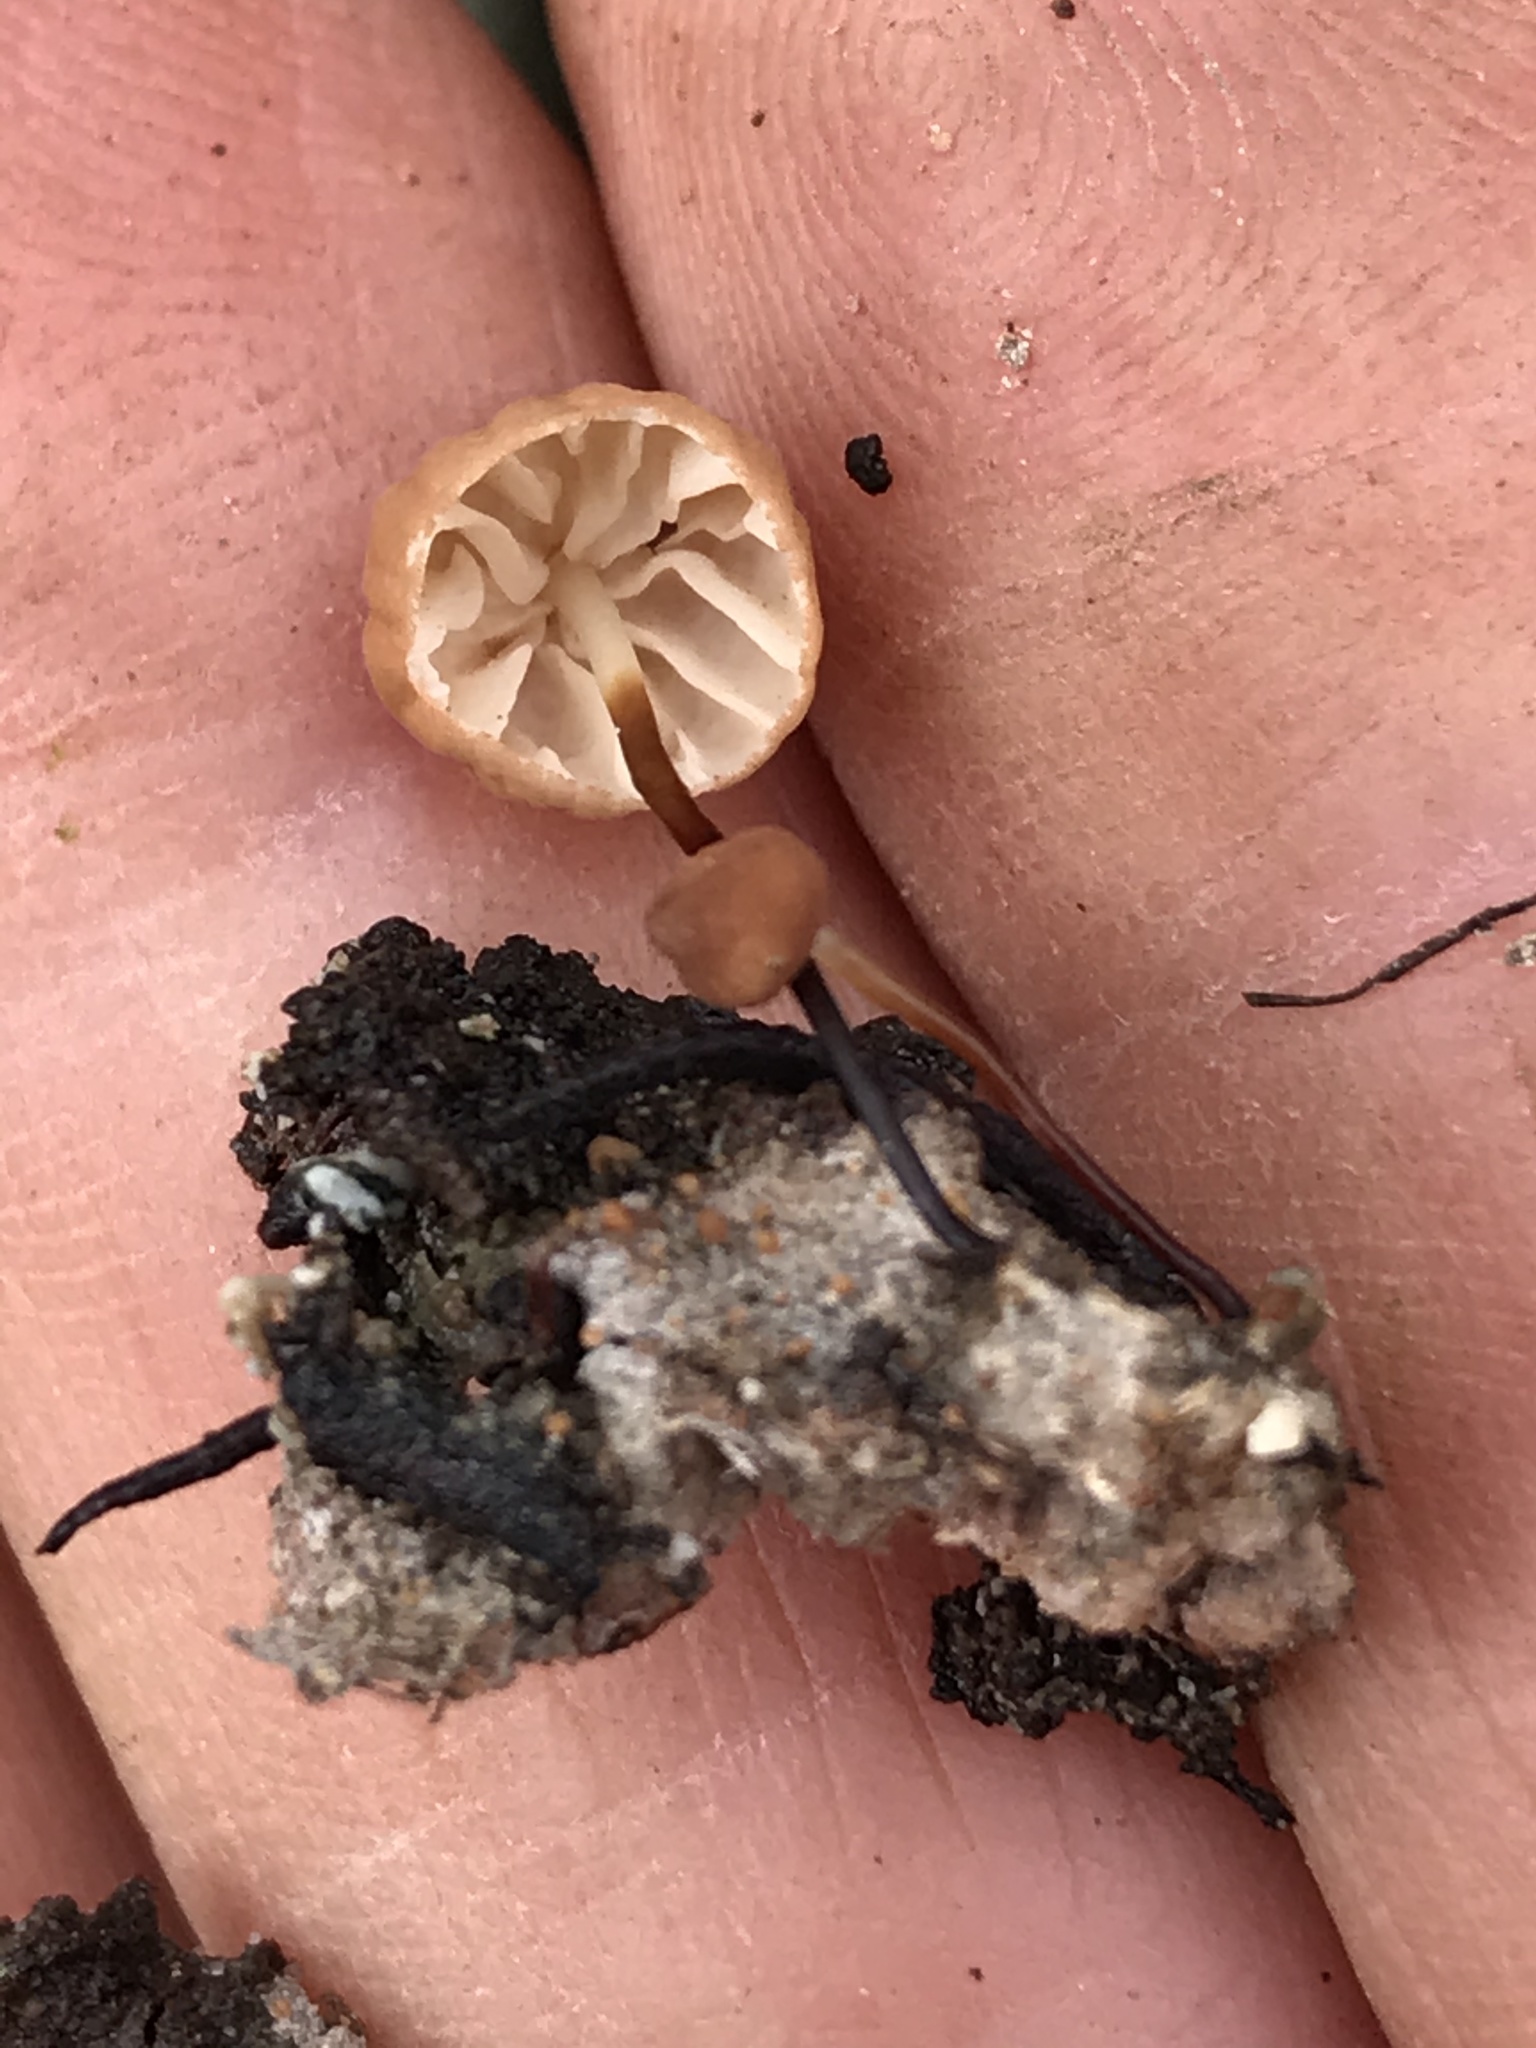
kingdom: Fungi
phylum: Basidiomycota
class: Agaricomycetes
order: Agaricales
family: Marasmiaceae
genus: Marasmius
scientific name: Marasmius
